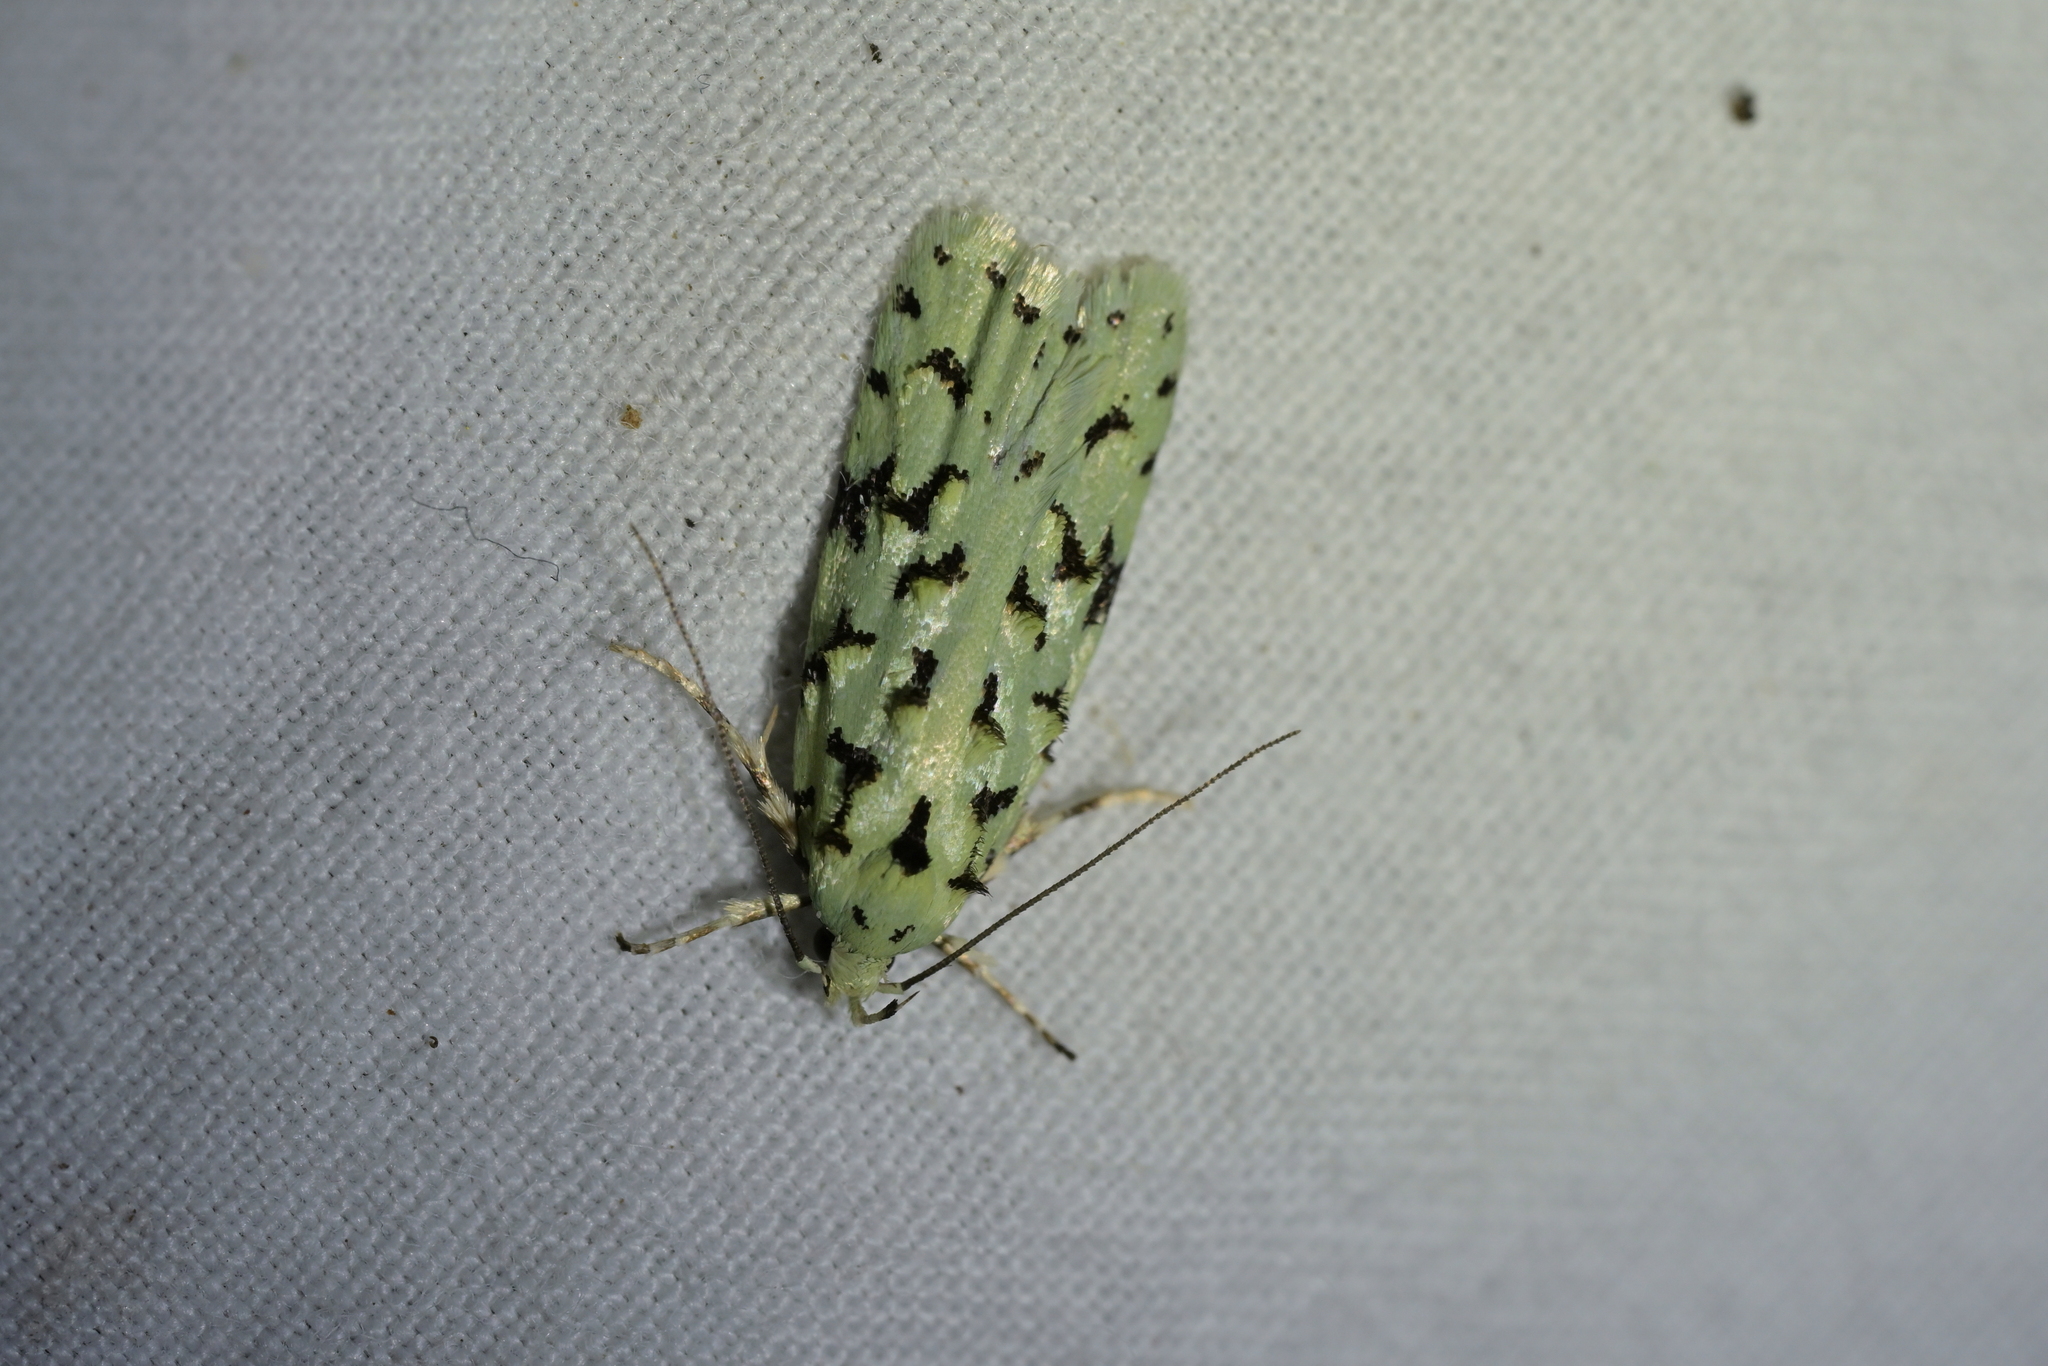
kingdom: Animalia
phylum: Arthropoda
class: Insecta
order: Lepidoptera
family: Oecophoridae
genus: Izatha
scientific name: Izatha peroneanella
